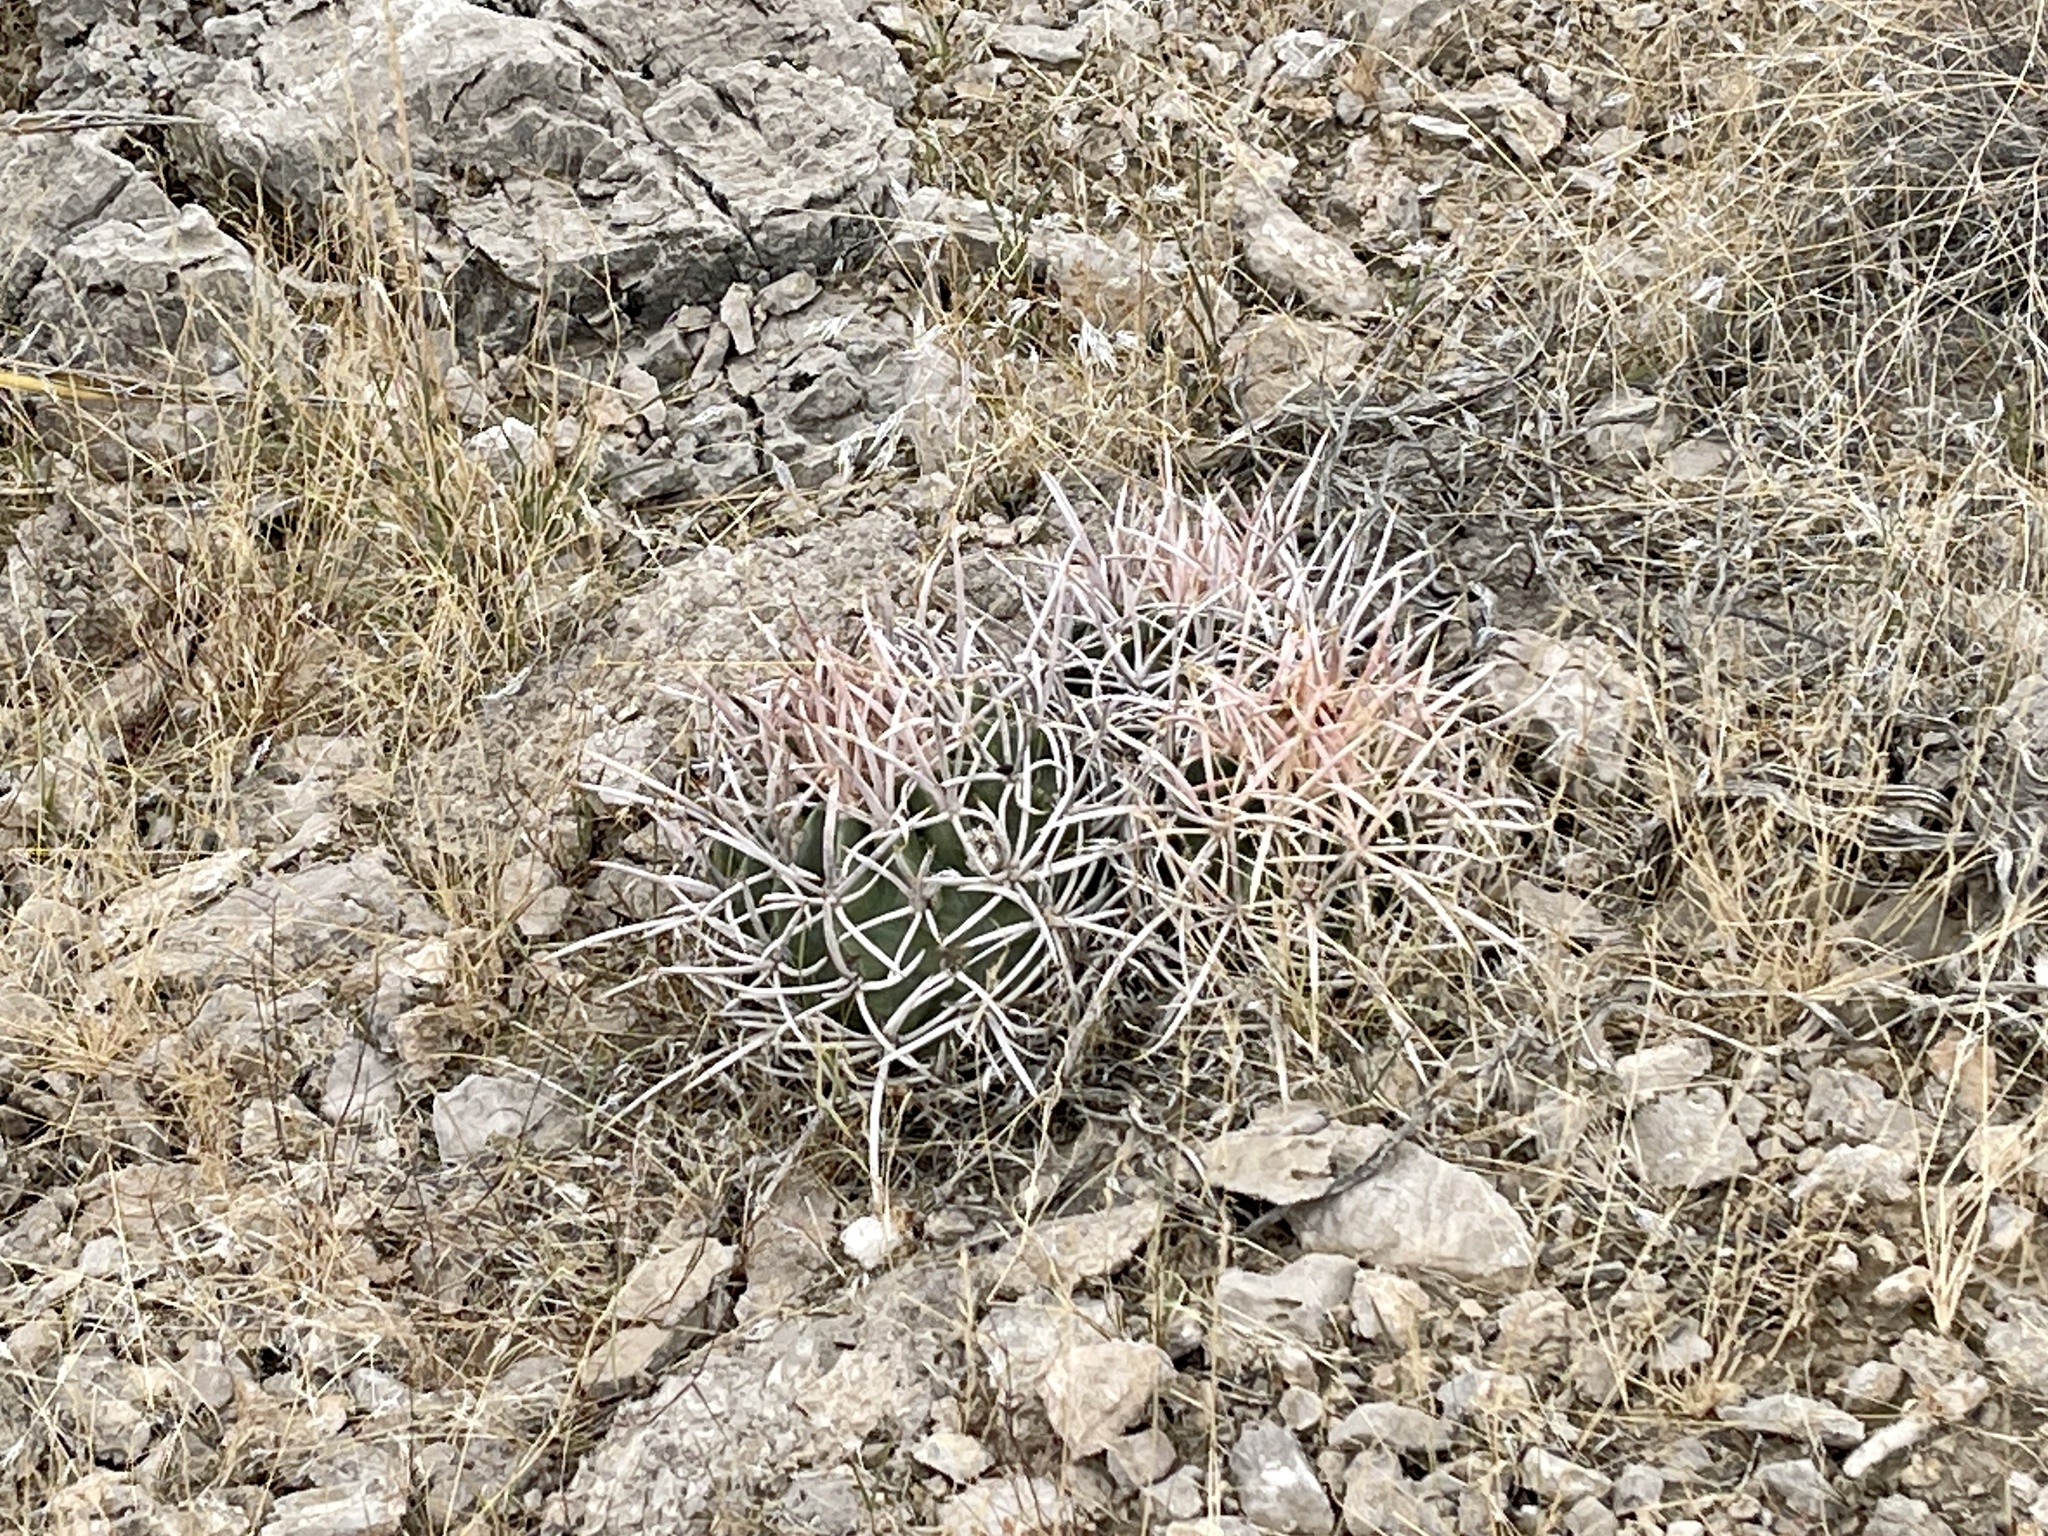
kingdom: Plantae
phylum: Tracheophyta
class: Magnoliopsida
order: Caryophyllales
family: Cactaceae
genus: Echinocactus
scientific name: Echinocactus polycephalus
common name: Cottontop cactus
